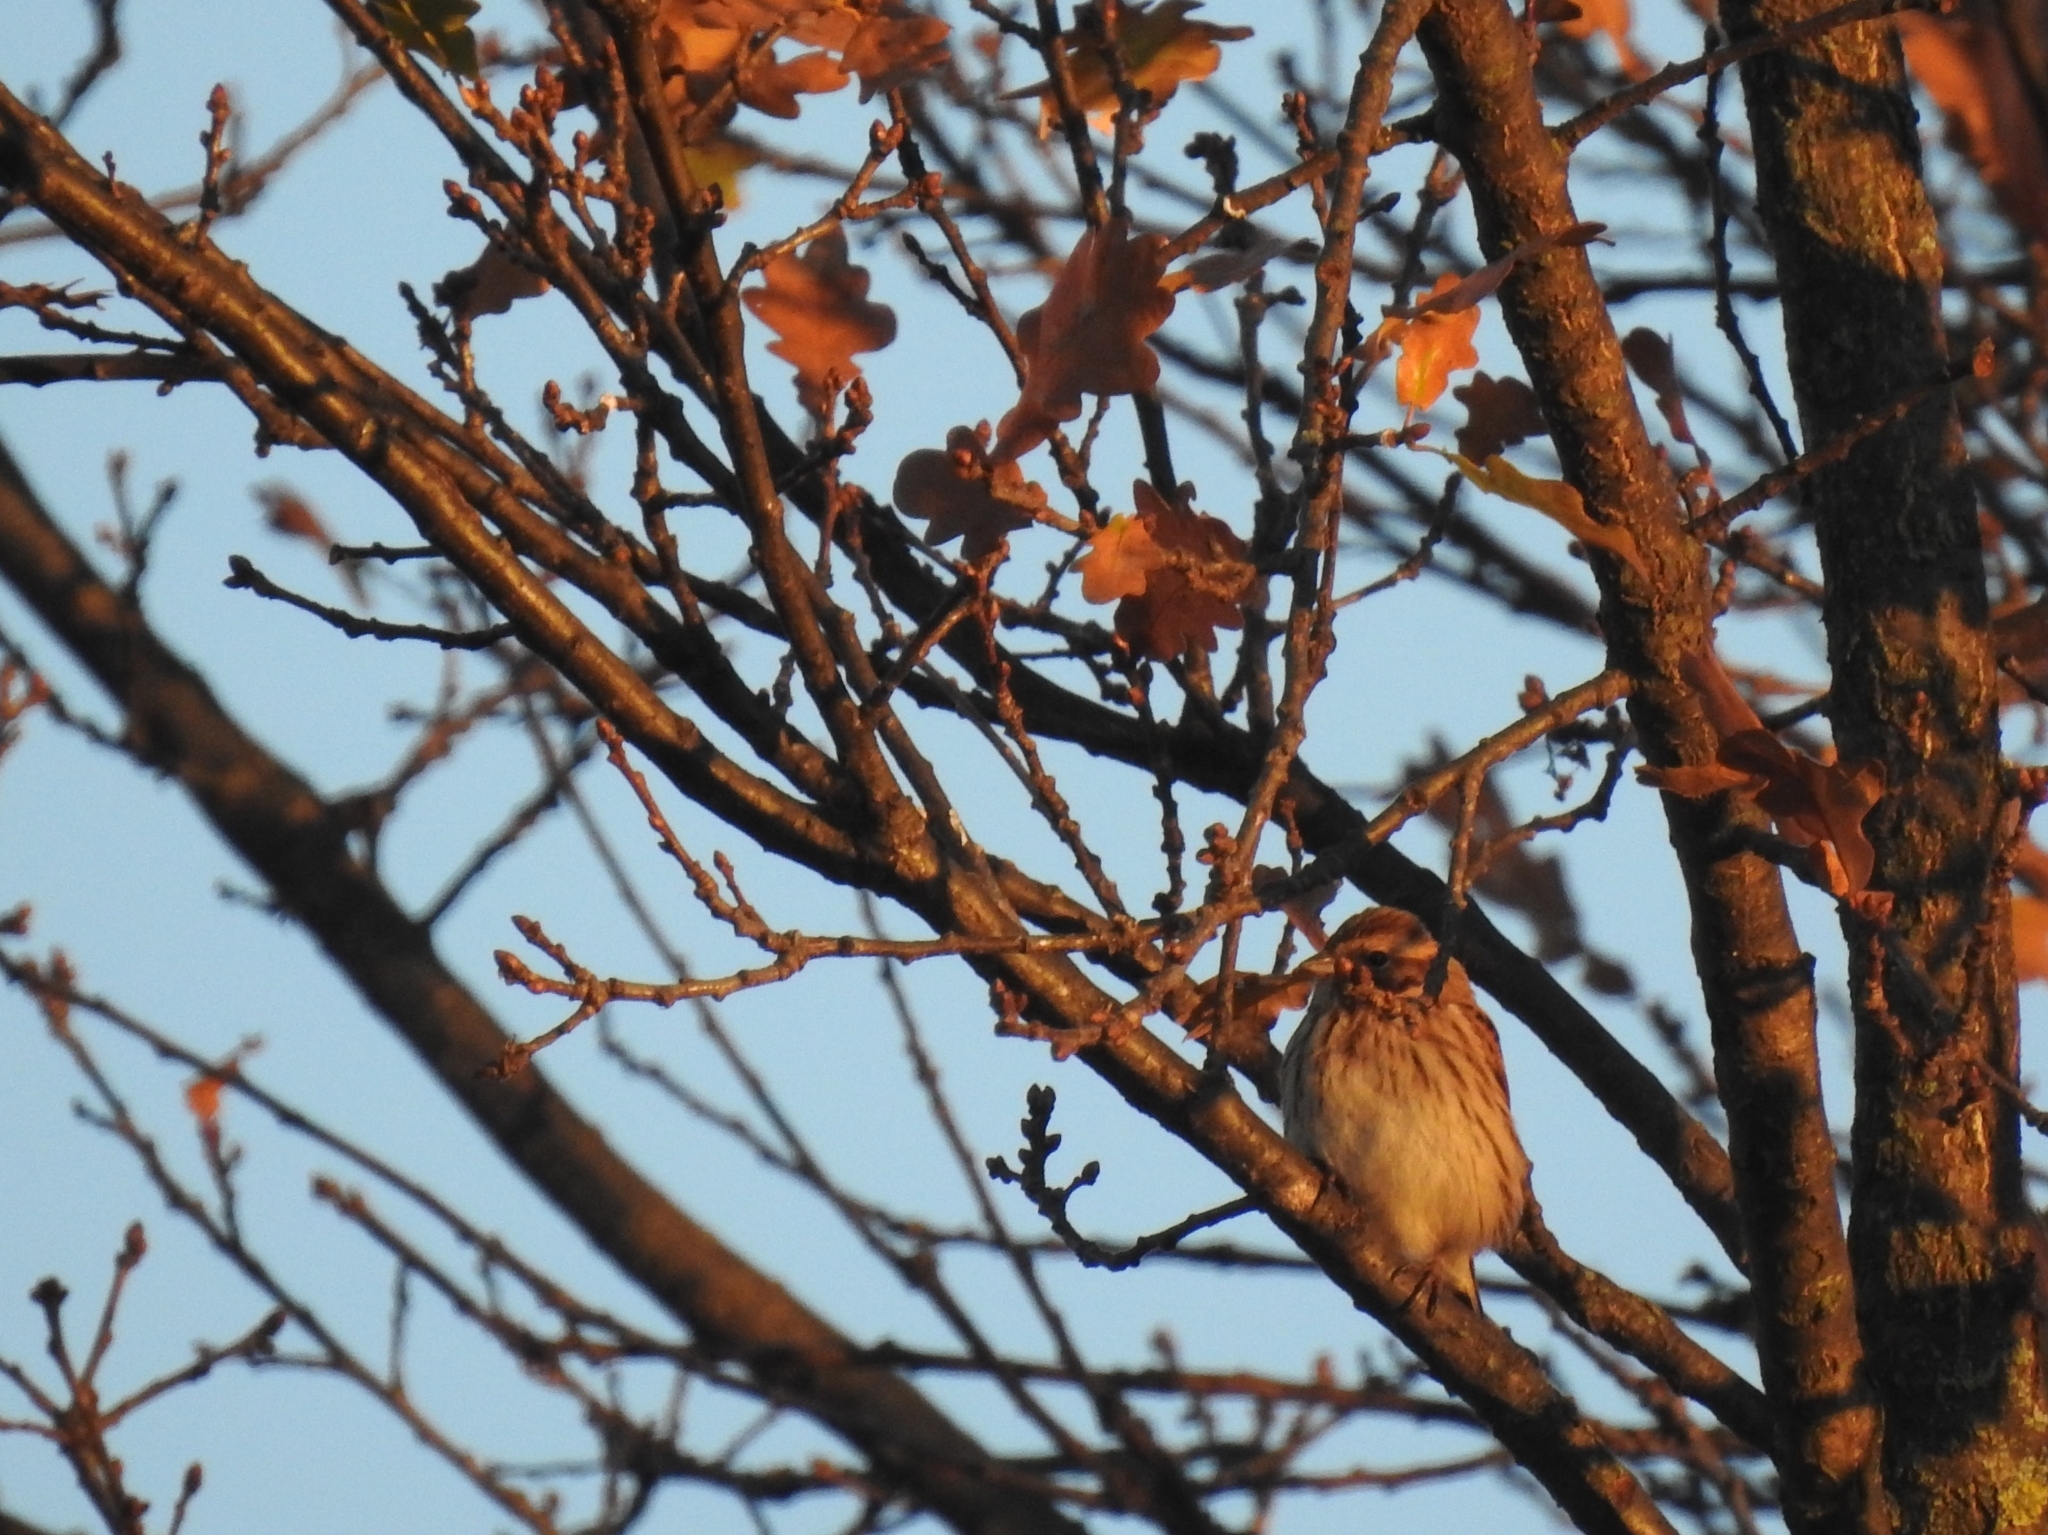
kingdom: Animalia
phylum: Chordata
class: Aves
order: Passeriformes
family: Emberizidae
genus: Emberiza
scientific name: Emberiza schoeniclus
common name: Reed bunting
